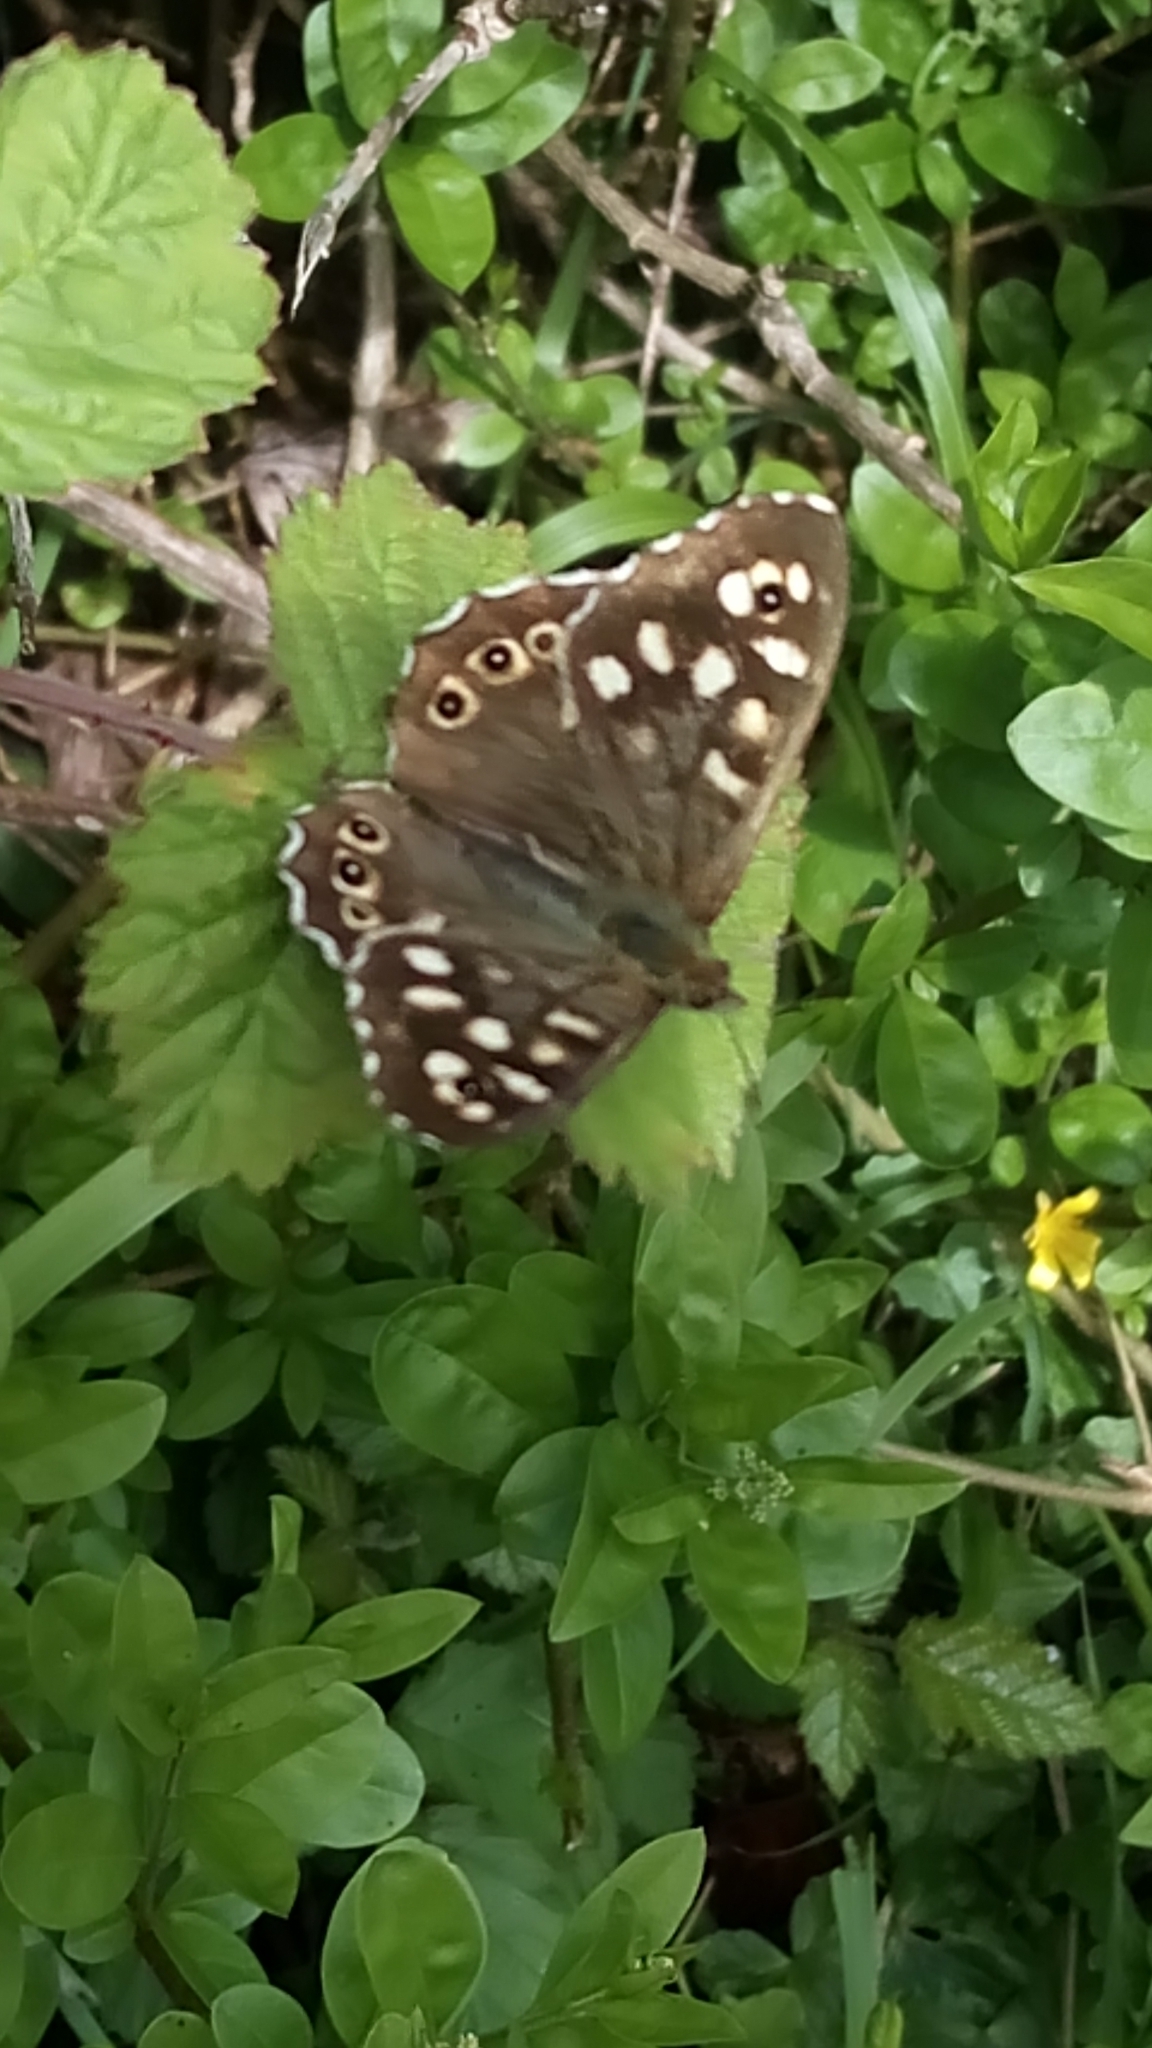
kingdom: Animalia
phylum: Arthropoda
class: Insecta
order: Lepidoptera
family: Nymphalidae
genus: Pararge
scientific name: Pararge aegeria
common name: Speckled wood
